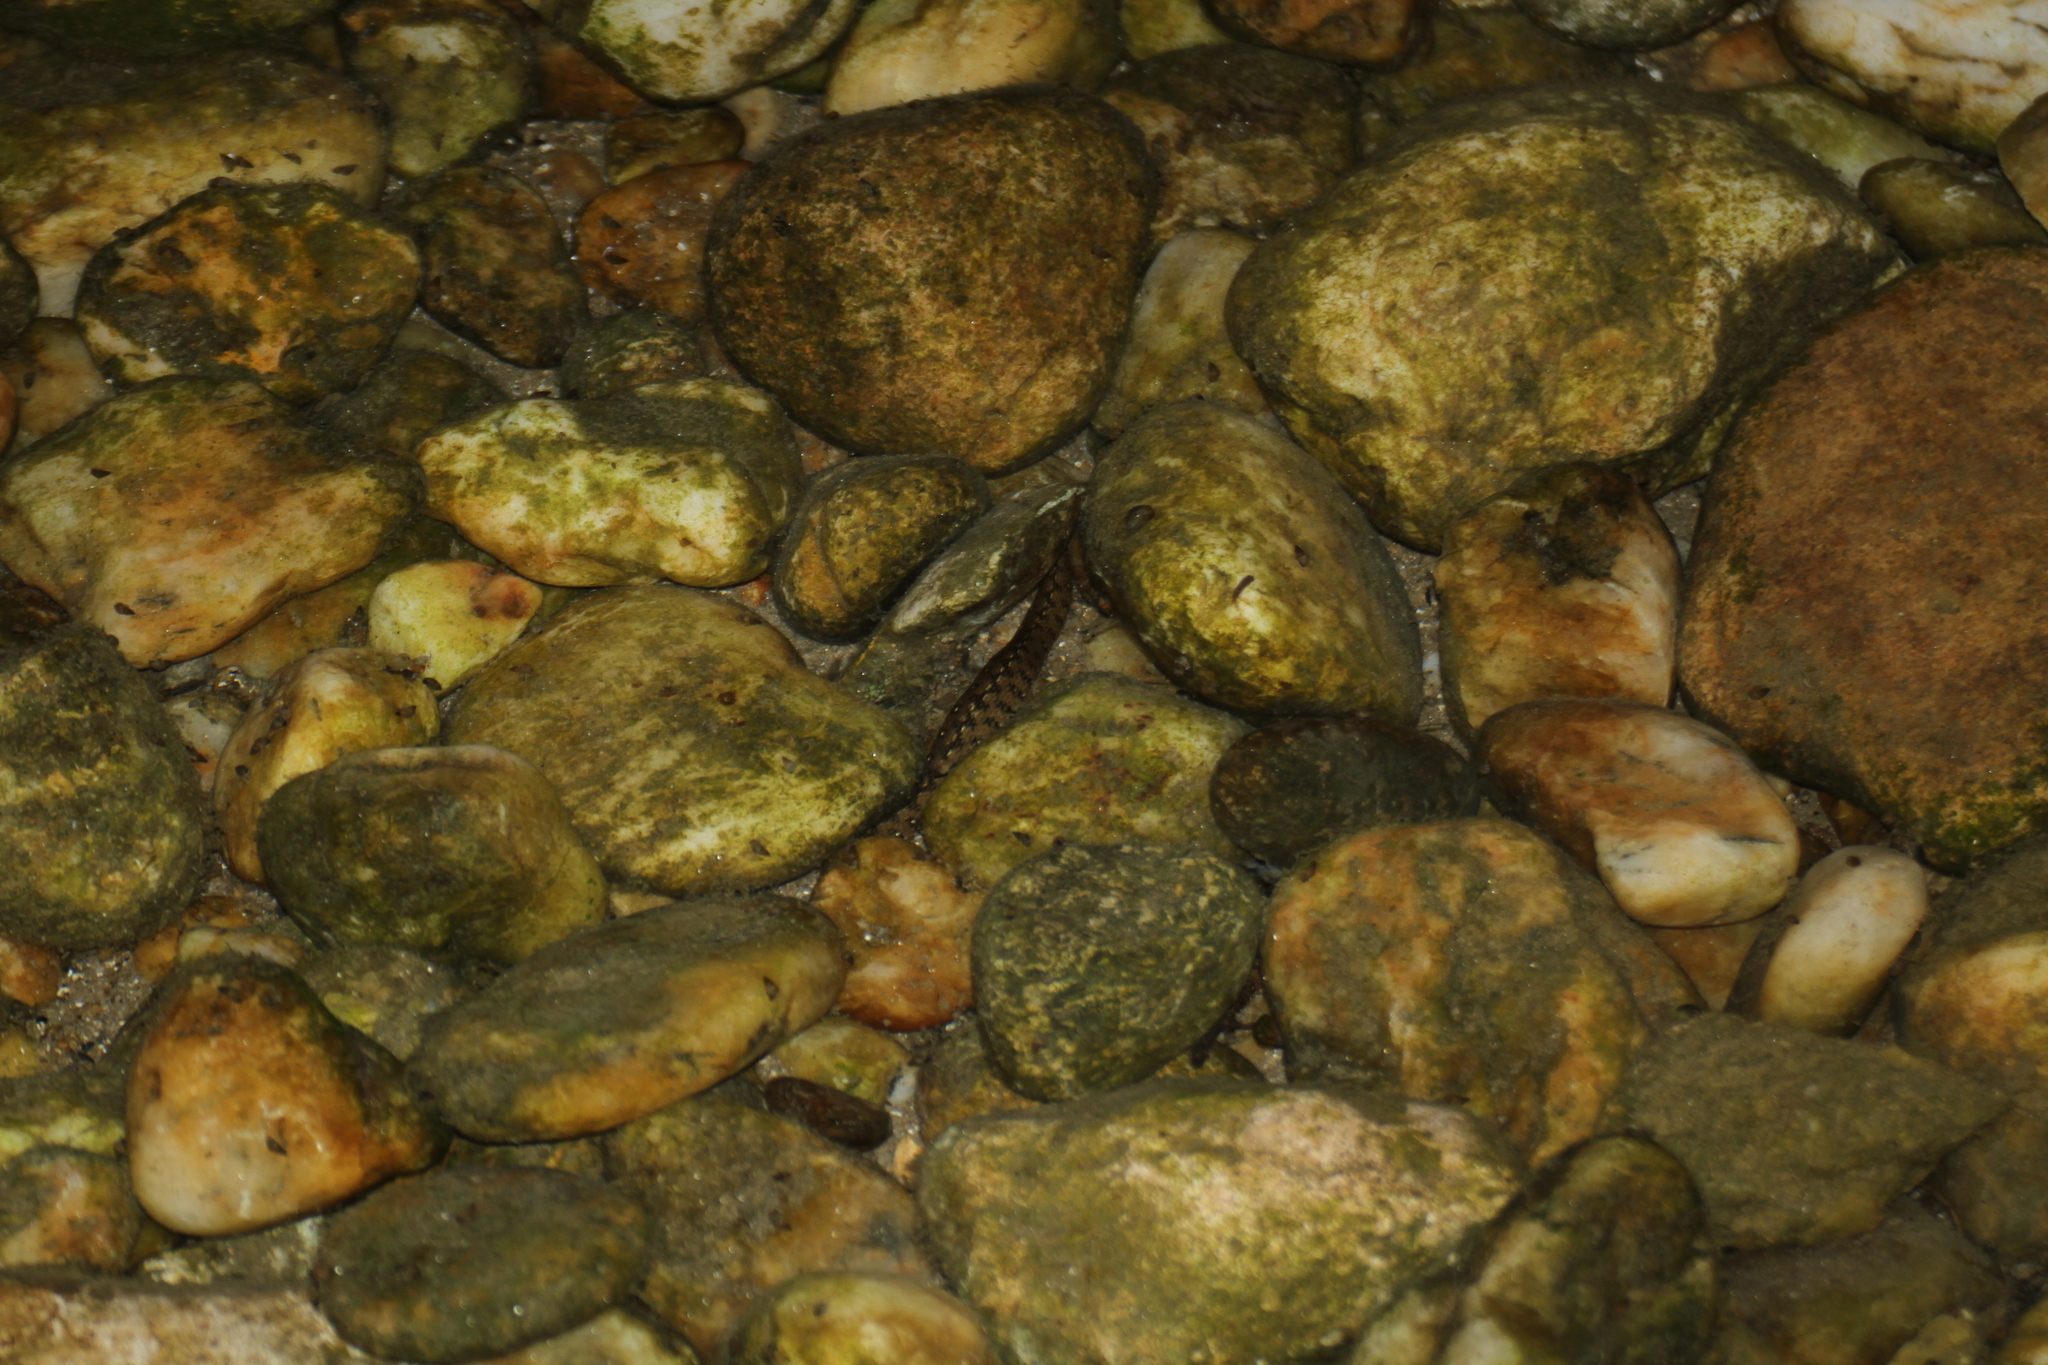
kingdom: Animalia
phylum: Chordata
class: Squamata
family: Colubridae
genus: Natrix
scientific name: Natrix maura
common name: Viperine water snake
